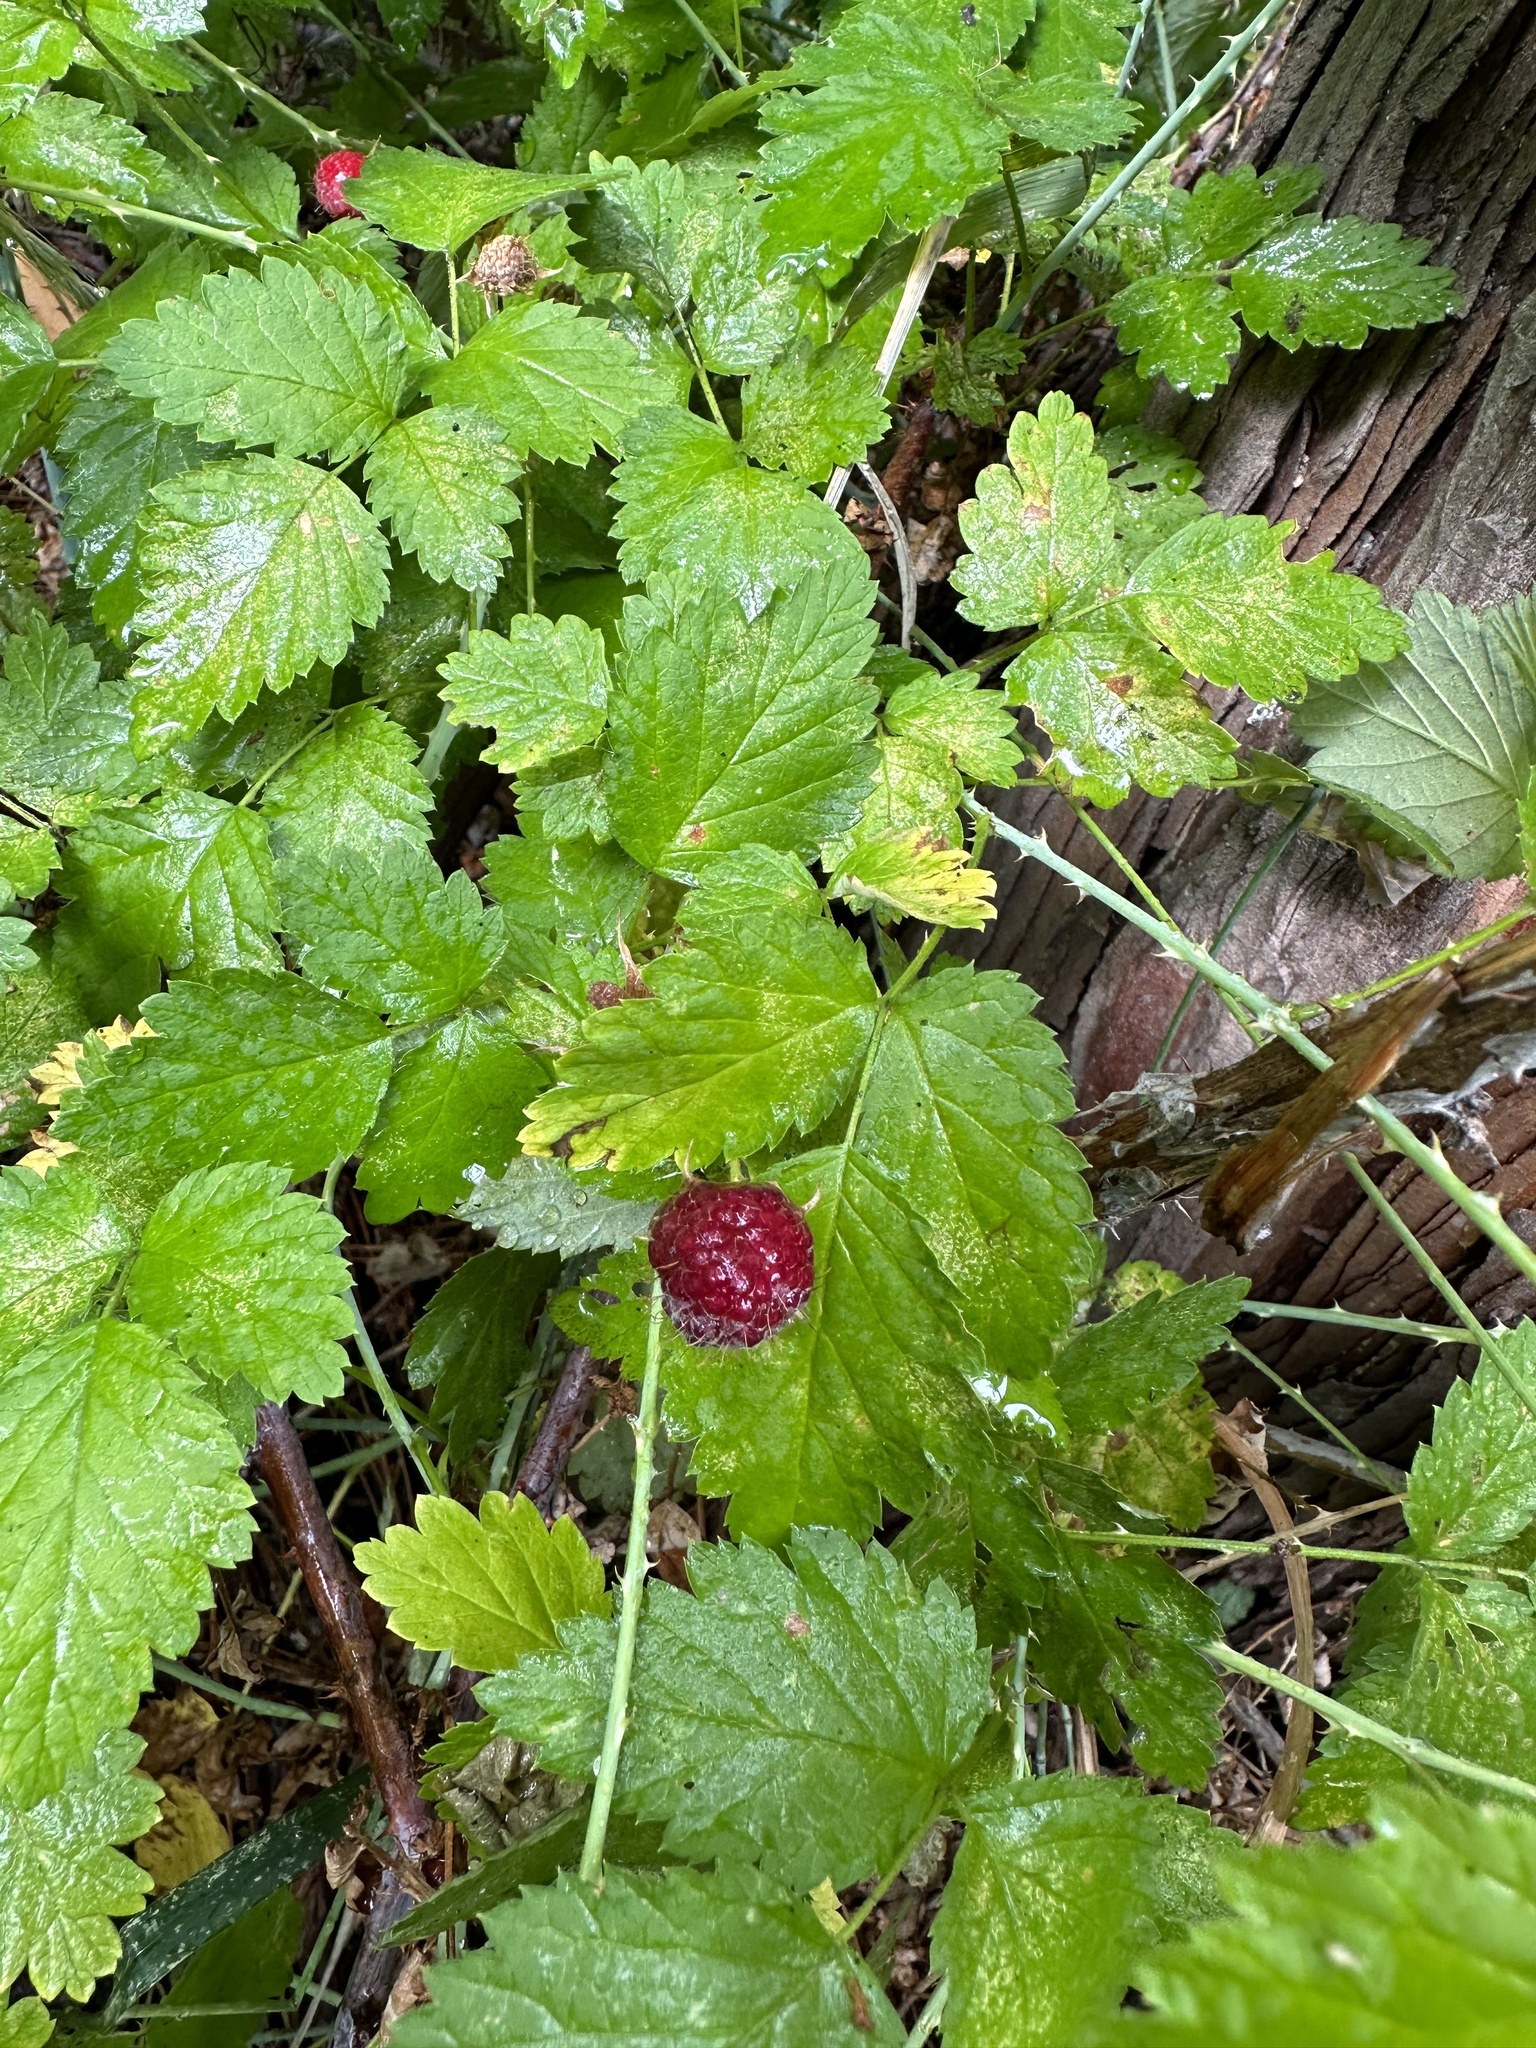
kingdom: Plantae
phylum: Tracheophyta
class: Magnoliopsida
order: Rosales
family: Rosaceae
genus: Rubus
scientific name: Rubus leucodermis
